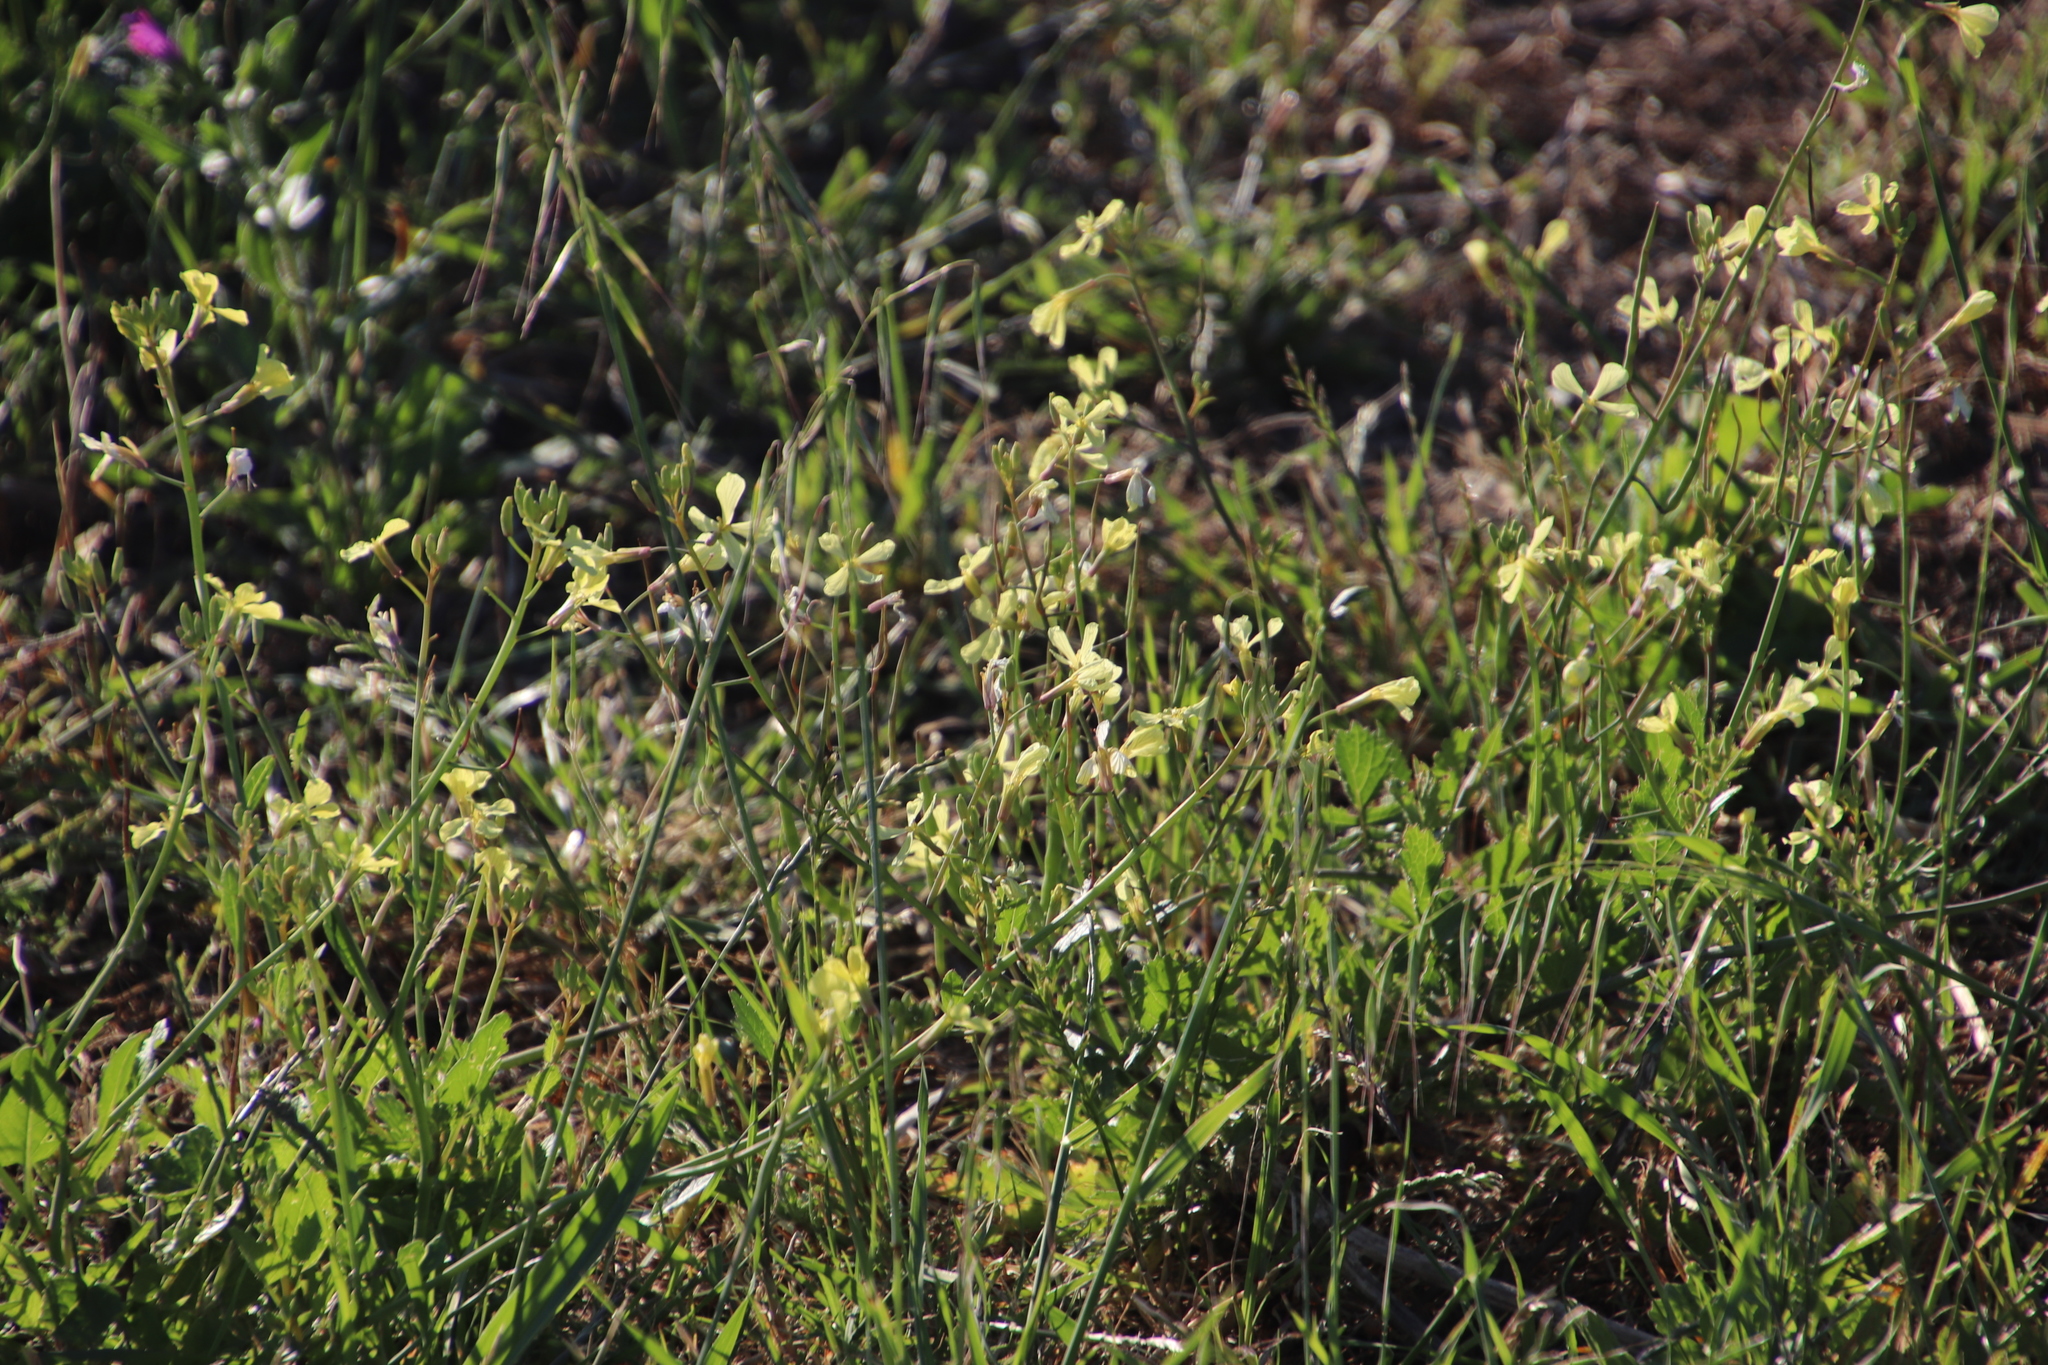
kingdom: Plantae
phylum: Tracheophyta
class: Magnoliopsida
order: Brassicales
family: Brassicaceae
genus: Raphanus
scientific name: Raphanus raphanistrum
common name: Wild radish
